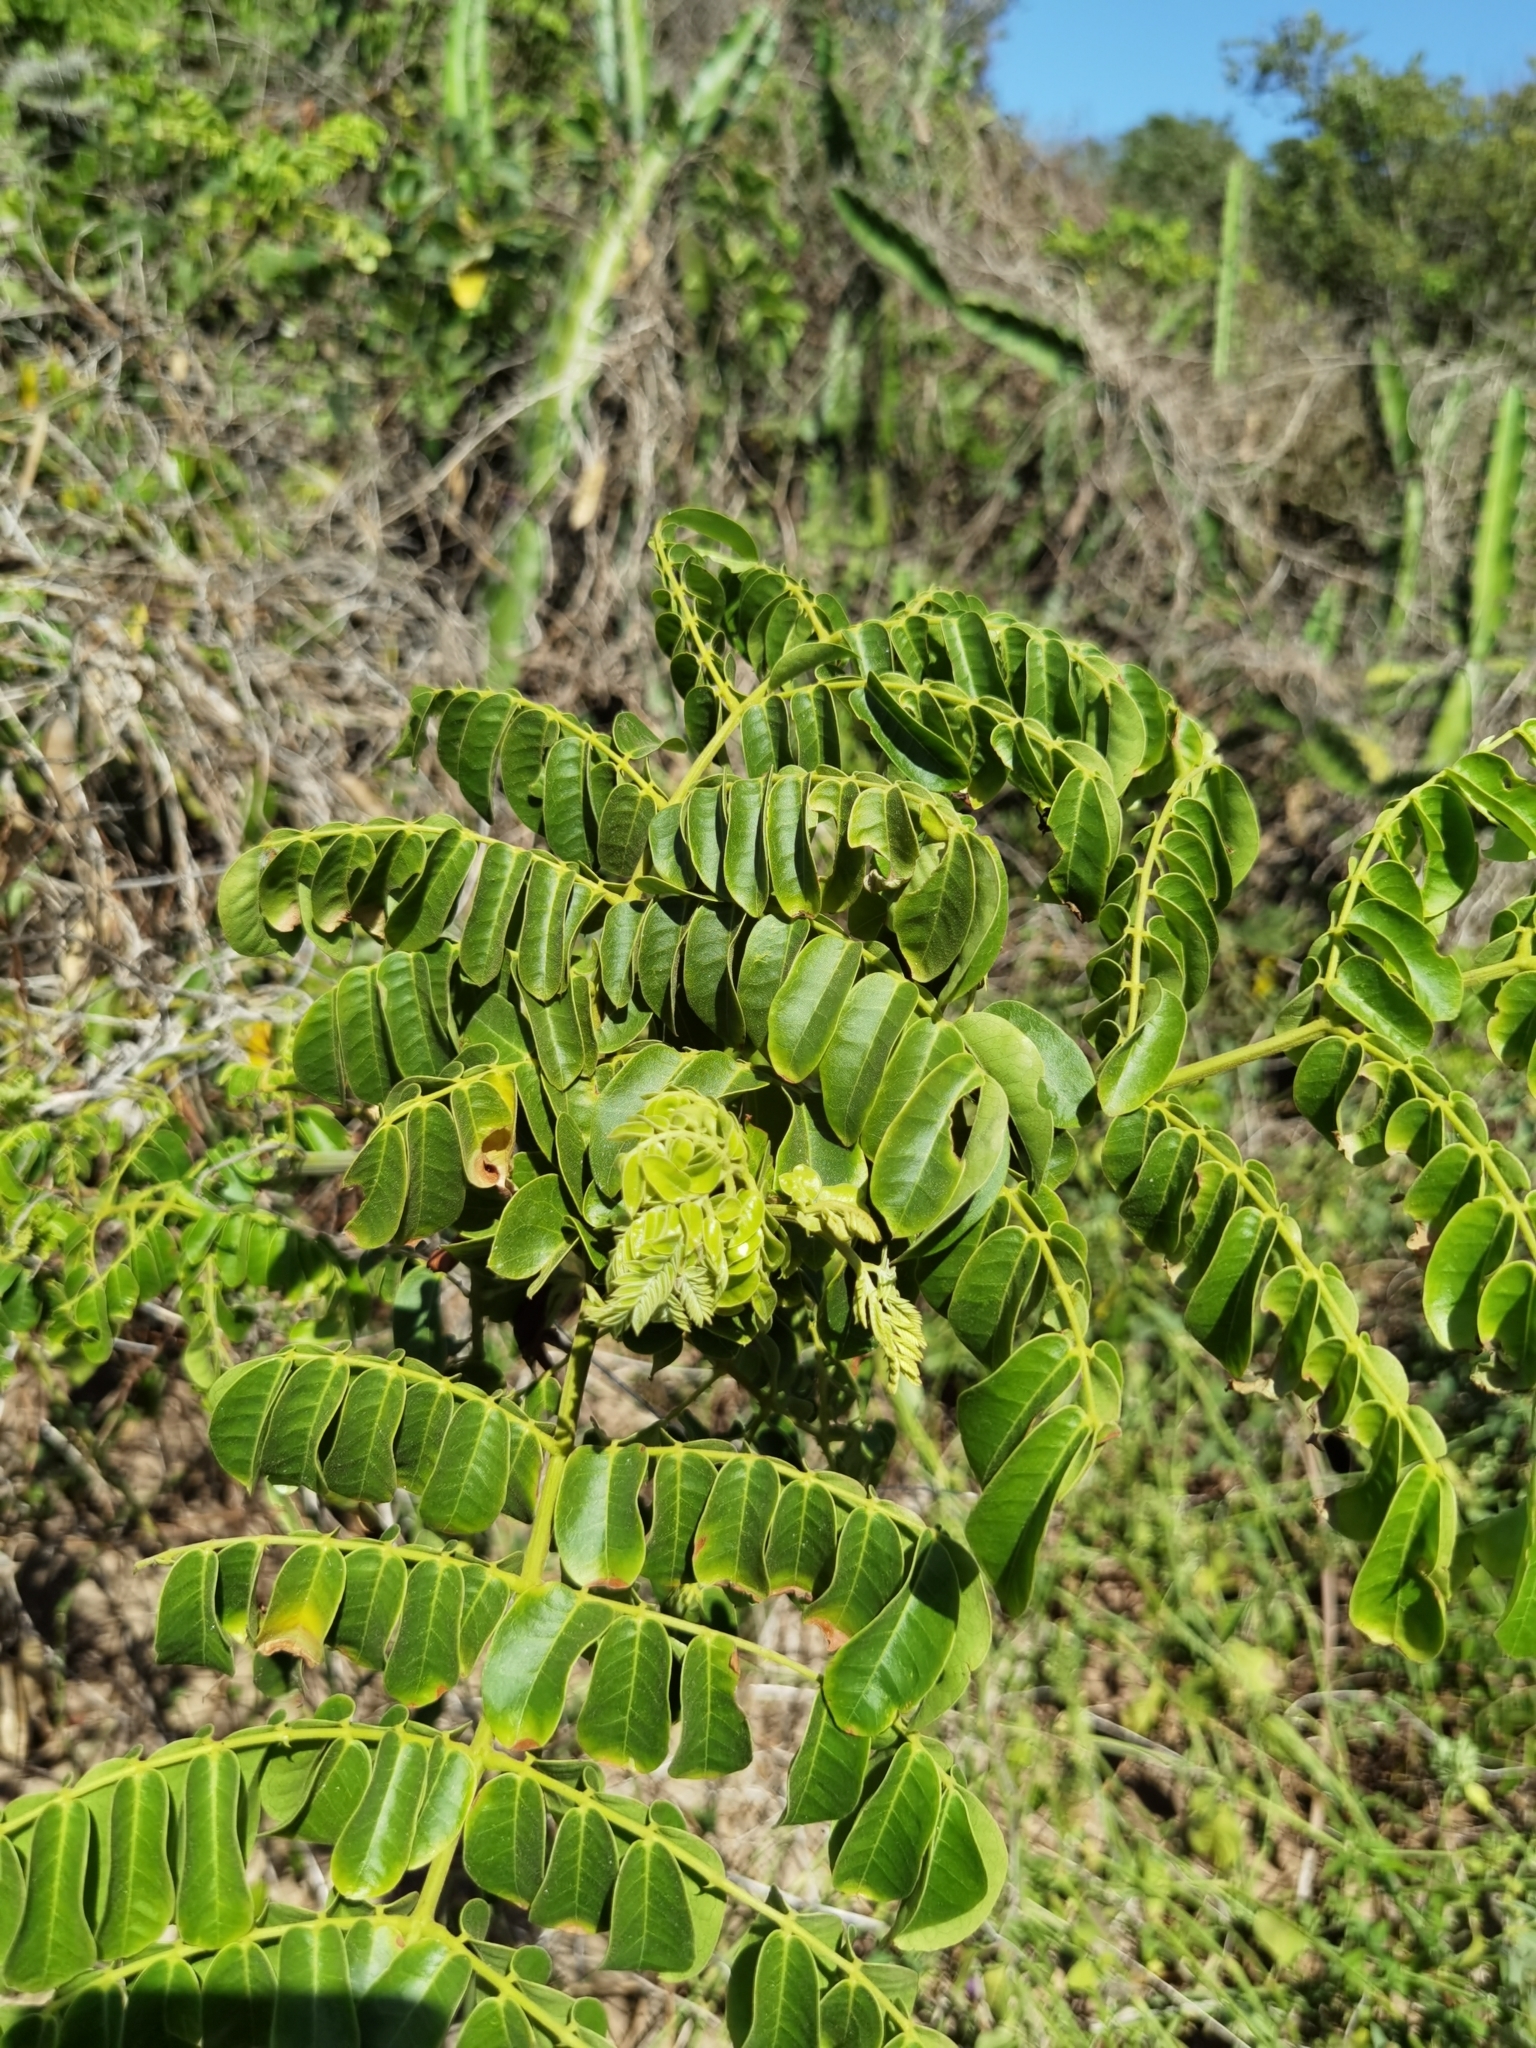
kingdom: Plantae
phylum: Tracheophyta
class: Magnoliopsida
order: Fabales
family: Fabaceae
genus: Guilandina
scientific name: Guilandina bonduc
